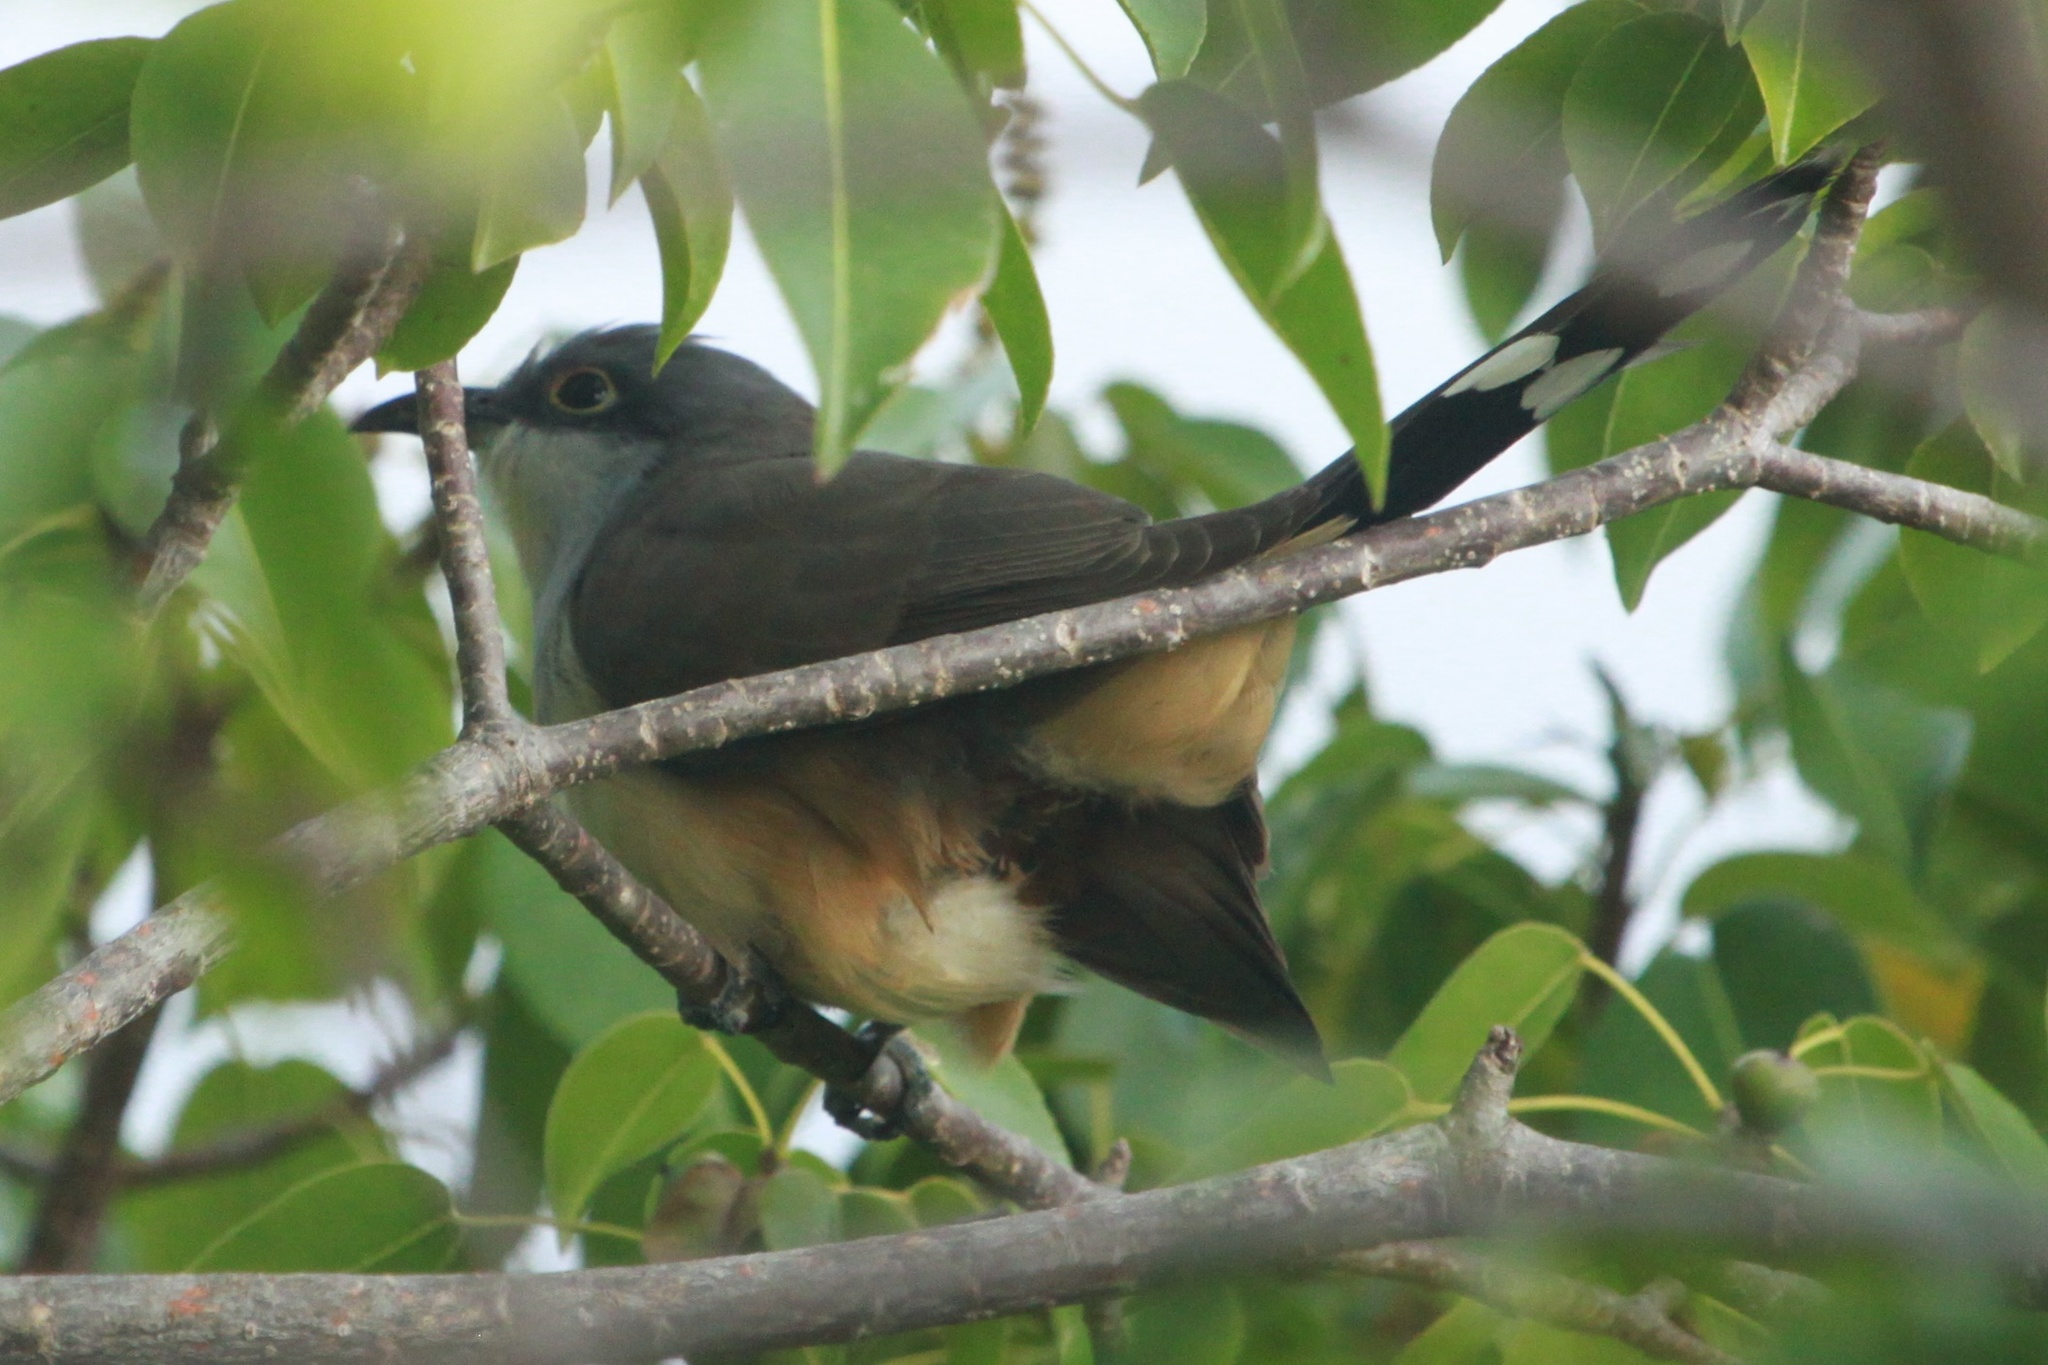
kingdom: Animalia
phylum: Chordata
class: Aves
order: Cuculiformes
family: Cuculidae
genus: Coccyzus
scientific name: Coccyzus melacoryphus
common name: Dark-billed cuckoo
